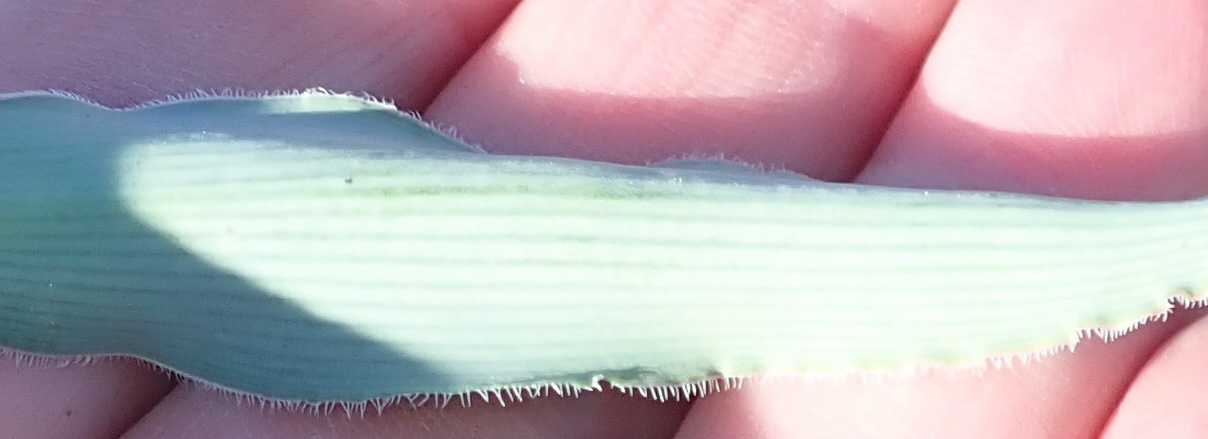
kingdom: Plantae
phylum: Tracheophyta
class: Liliopsida
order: Asparagales
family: Asparagaceae
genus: Chlorophytum
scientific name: Chlorophytum crispum
